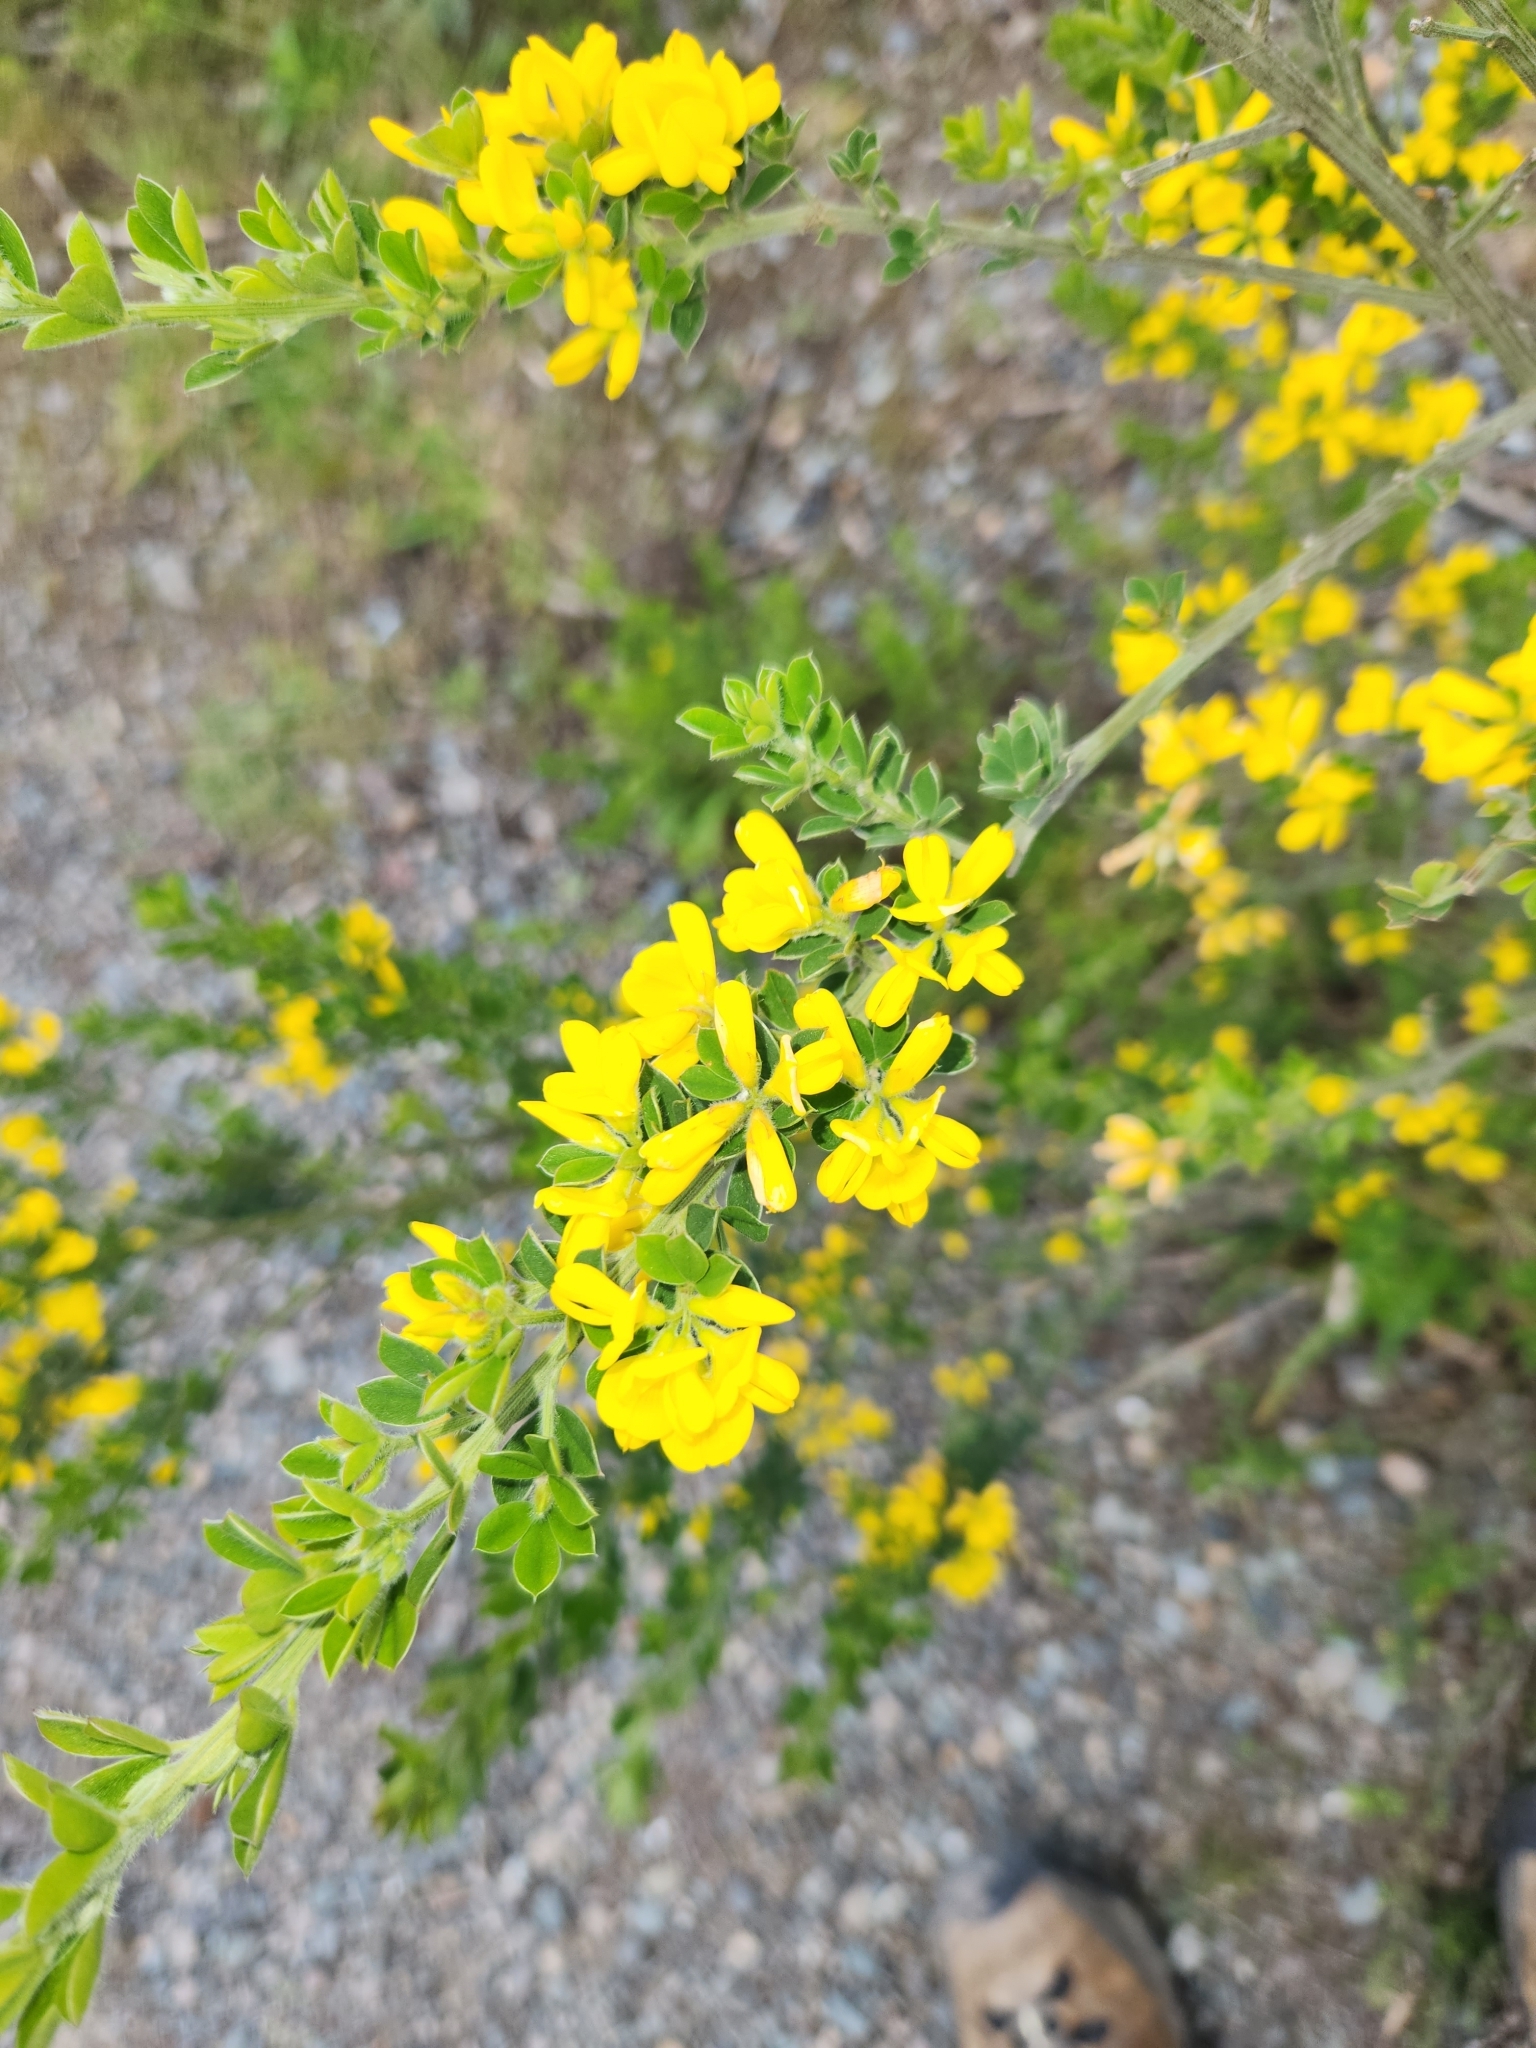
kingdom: Plantae
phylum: Tracheophyta
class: Magnoliopsida
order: Fabales
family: Fabaceae
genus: Genista
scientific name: Genista monspessulana
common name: Montpellier broom
